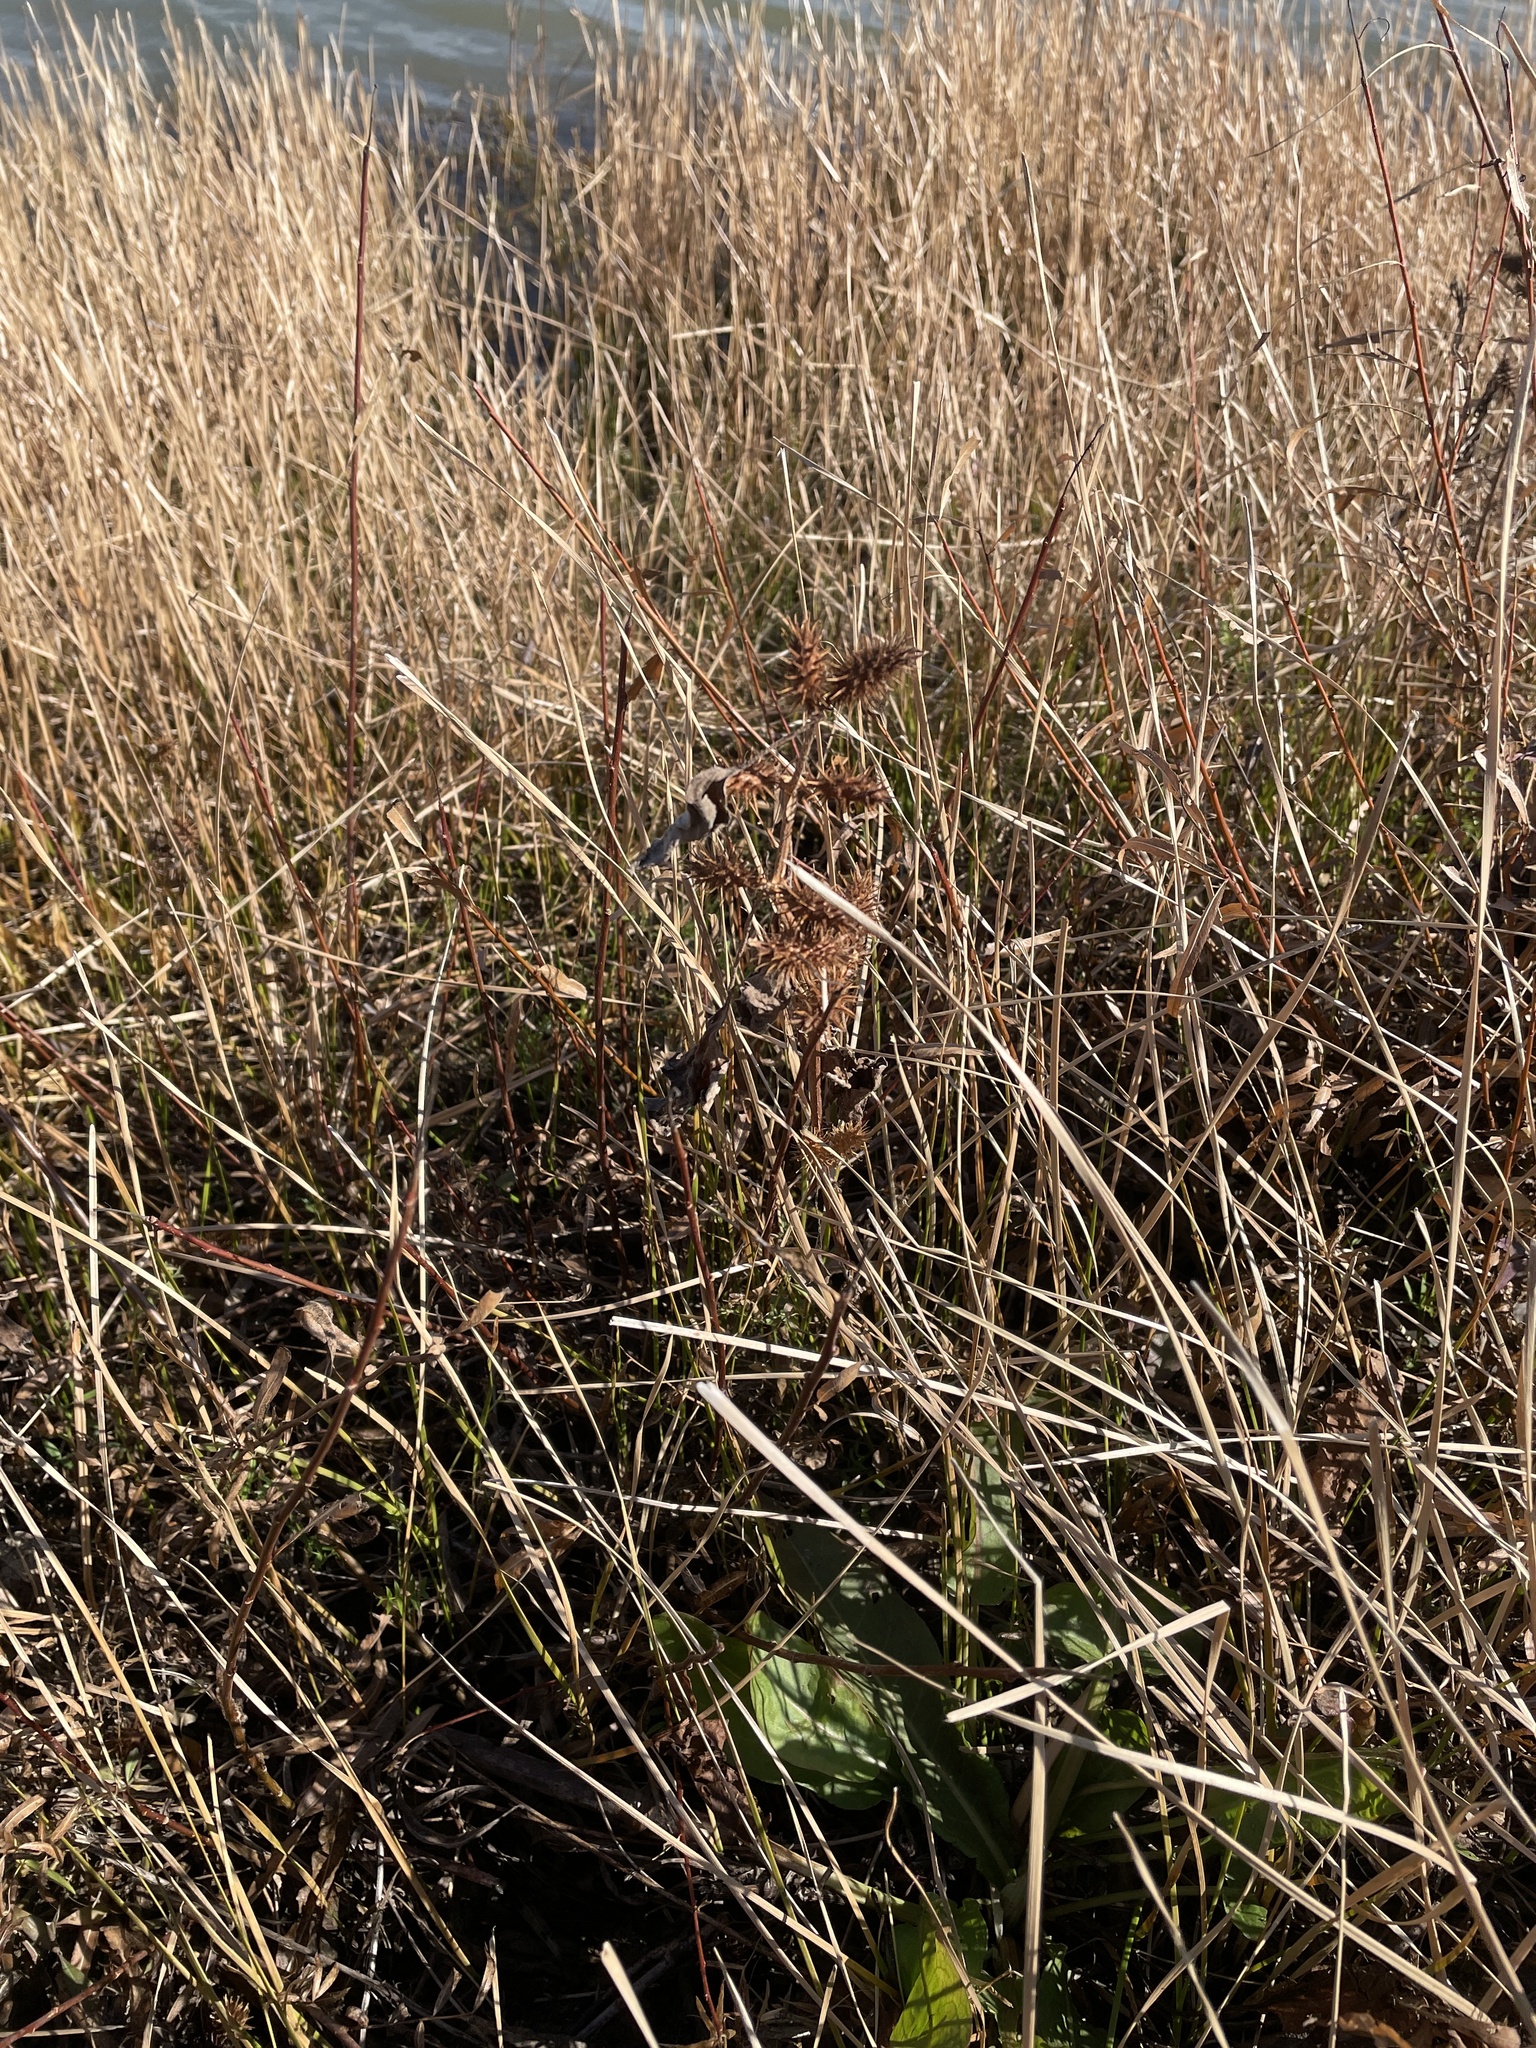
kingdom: Plantae
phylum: Tracheophyta
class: Magnoliopsida
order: Asterales
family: Asteraceae
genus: Xanthium
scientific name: Xanthium strumarium
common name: Rough cocklebur
